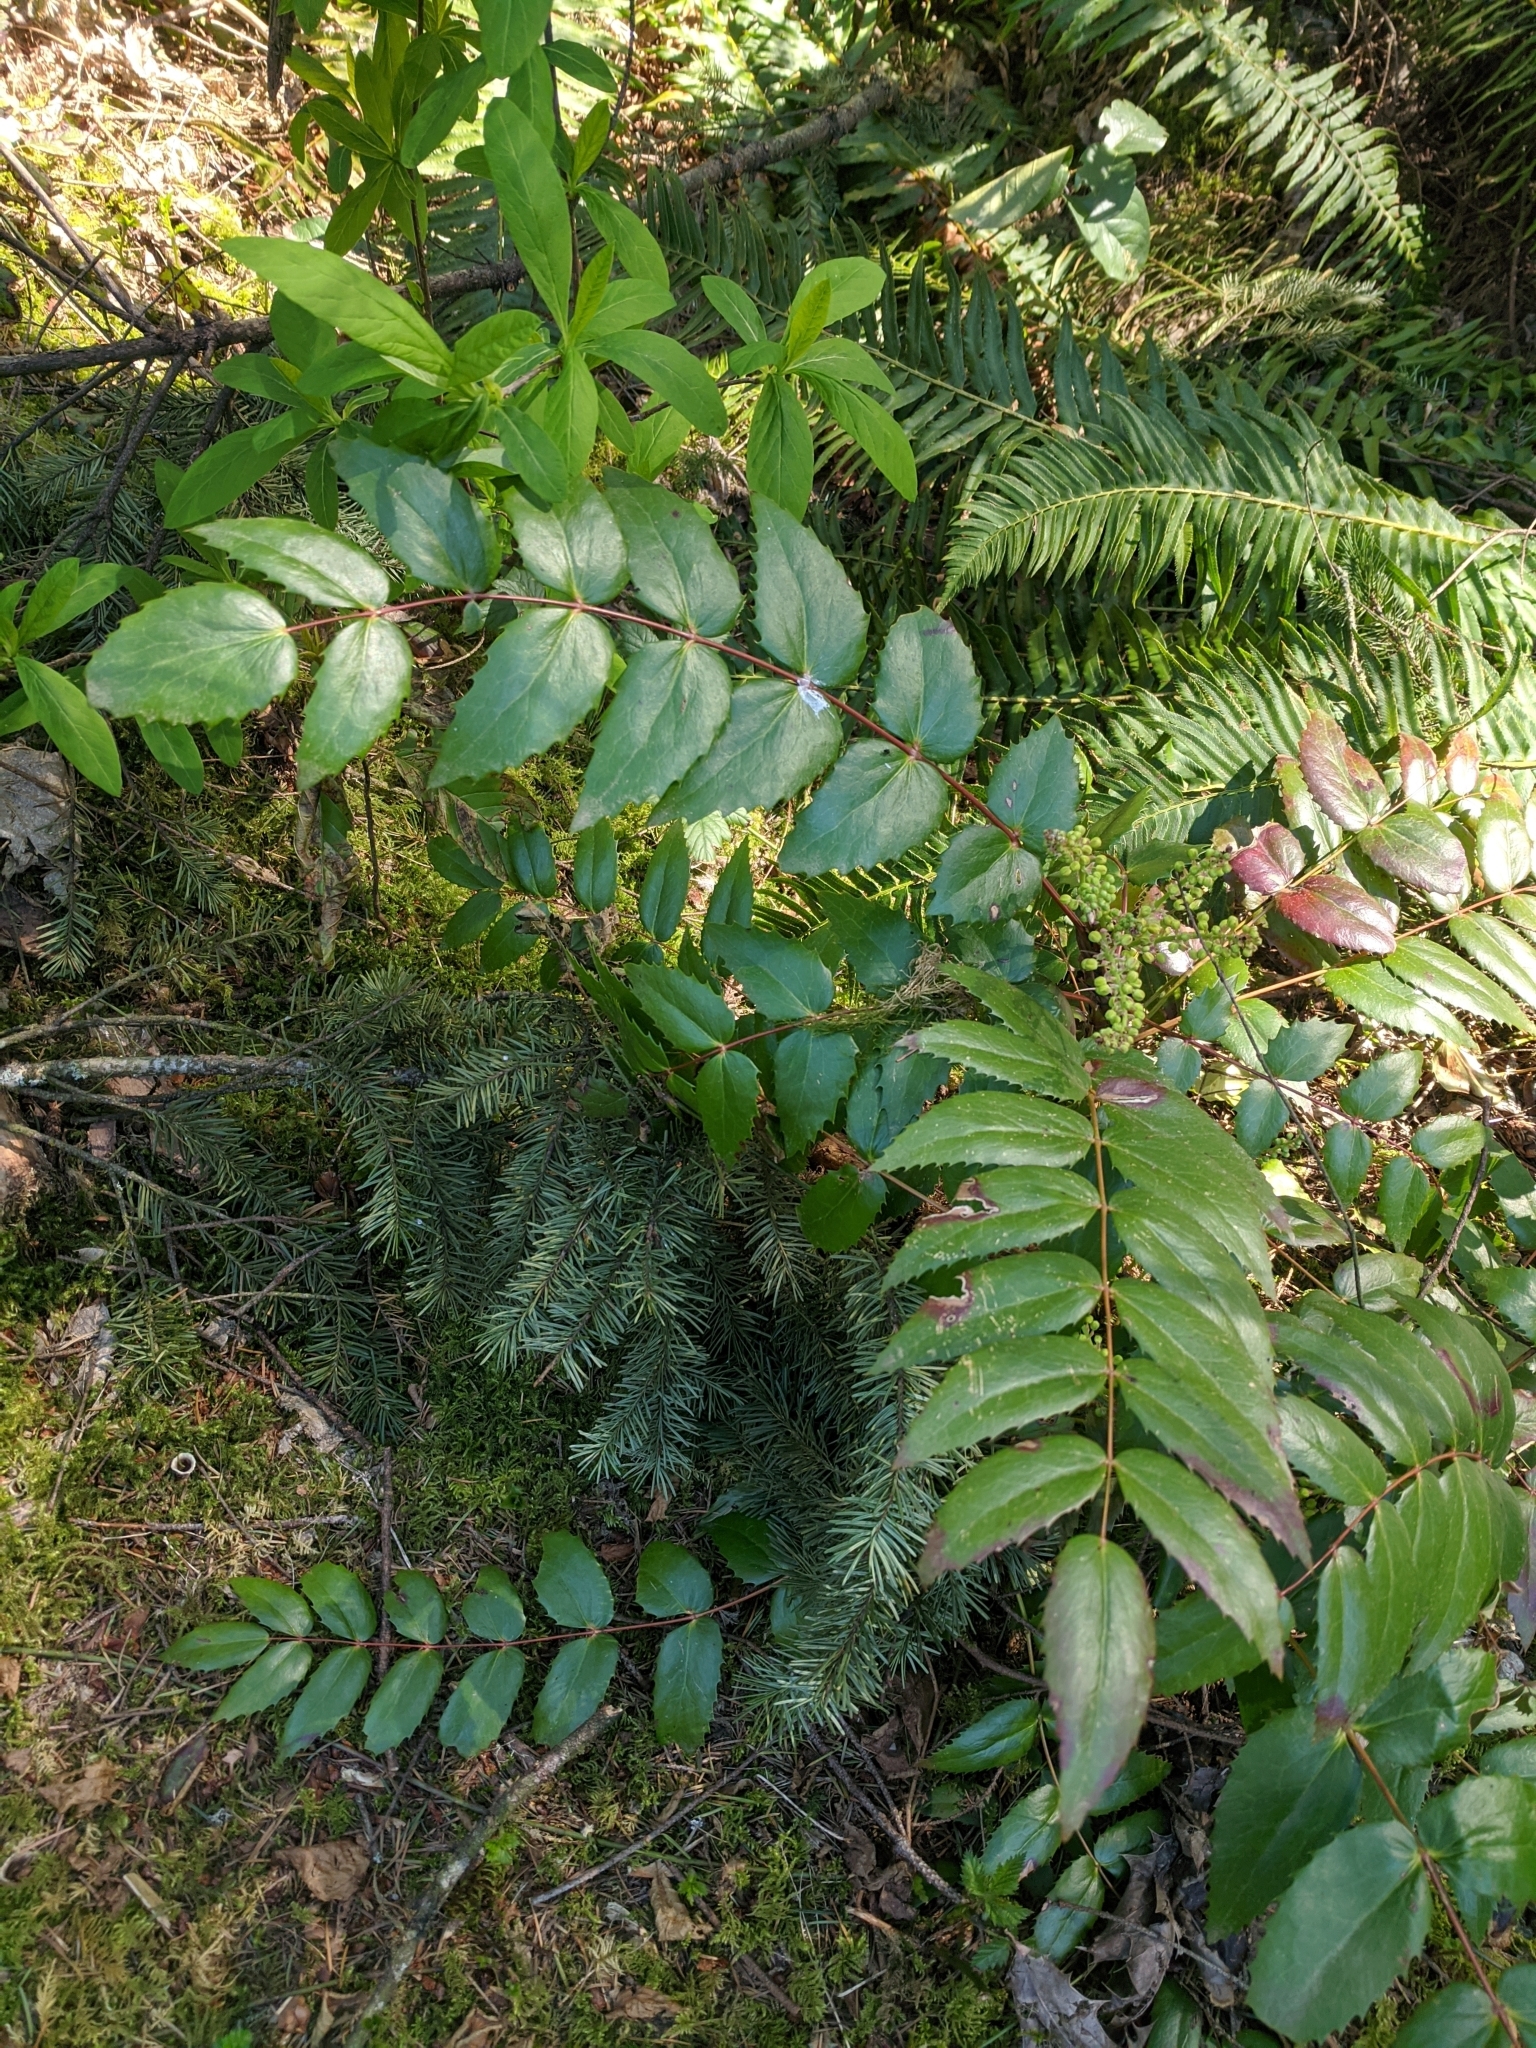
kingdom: Plantae
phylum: Tracheophyta
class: Magnoliopsida
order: Ranunculales
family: Berberidaceae
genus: Mahonia
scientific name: Mahonia nervosa
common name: Cascade oregon-grape
